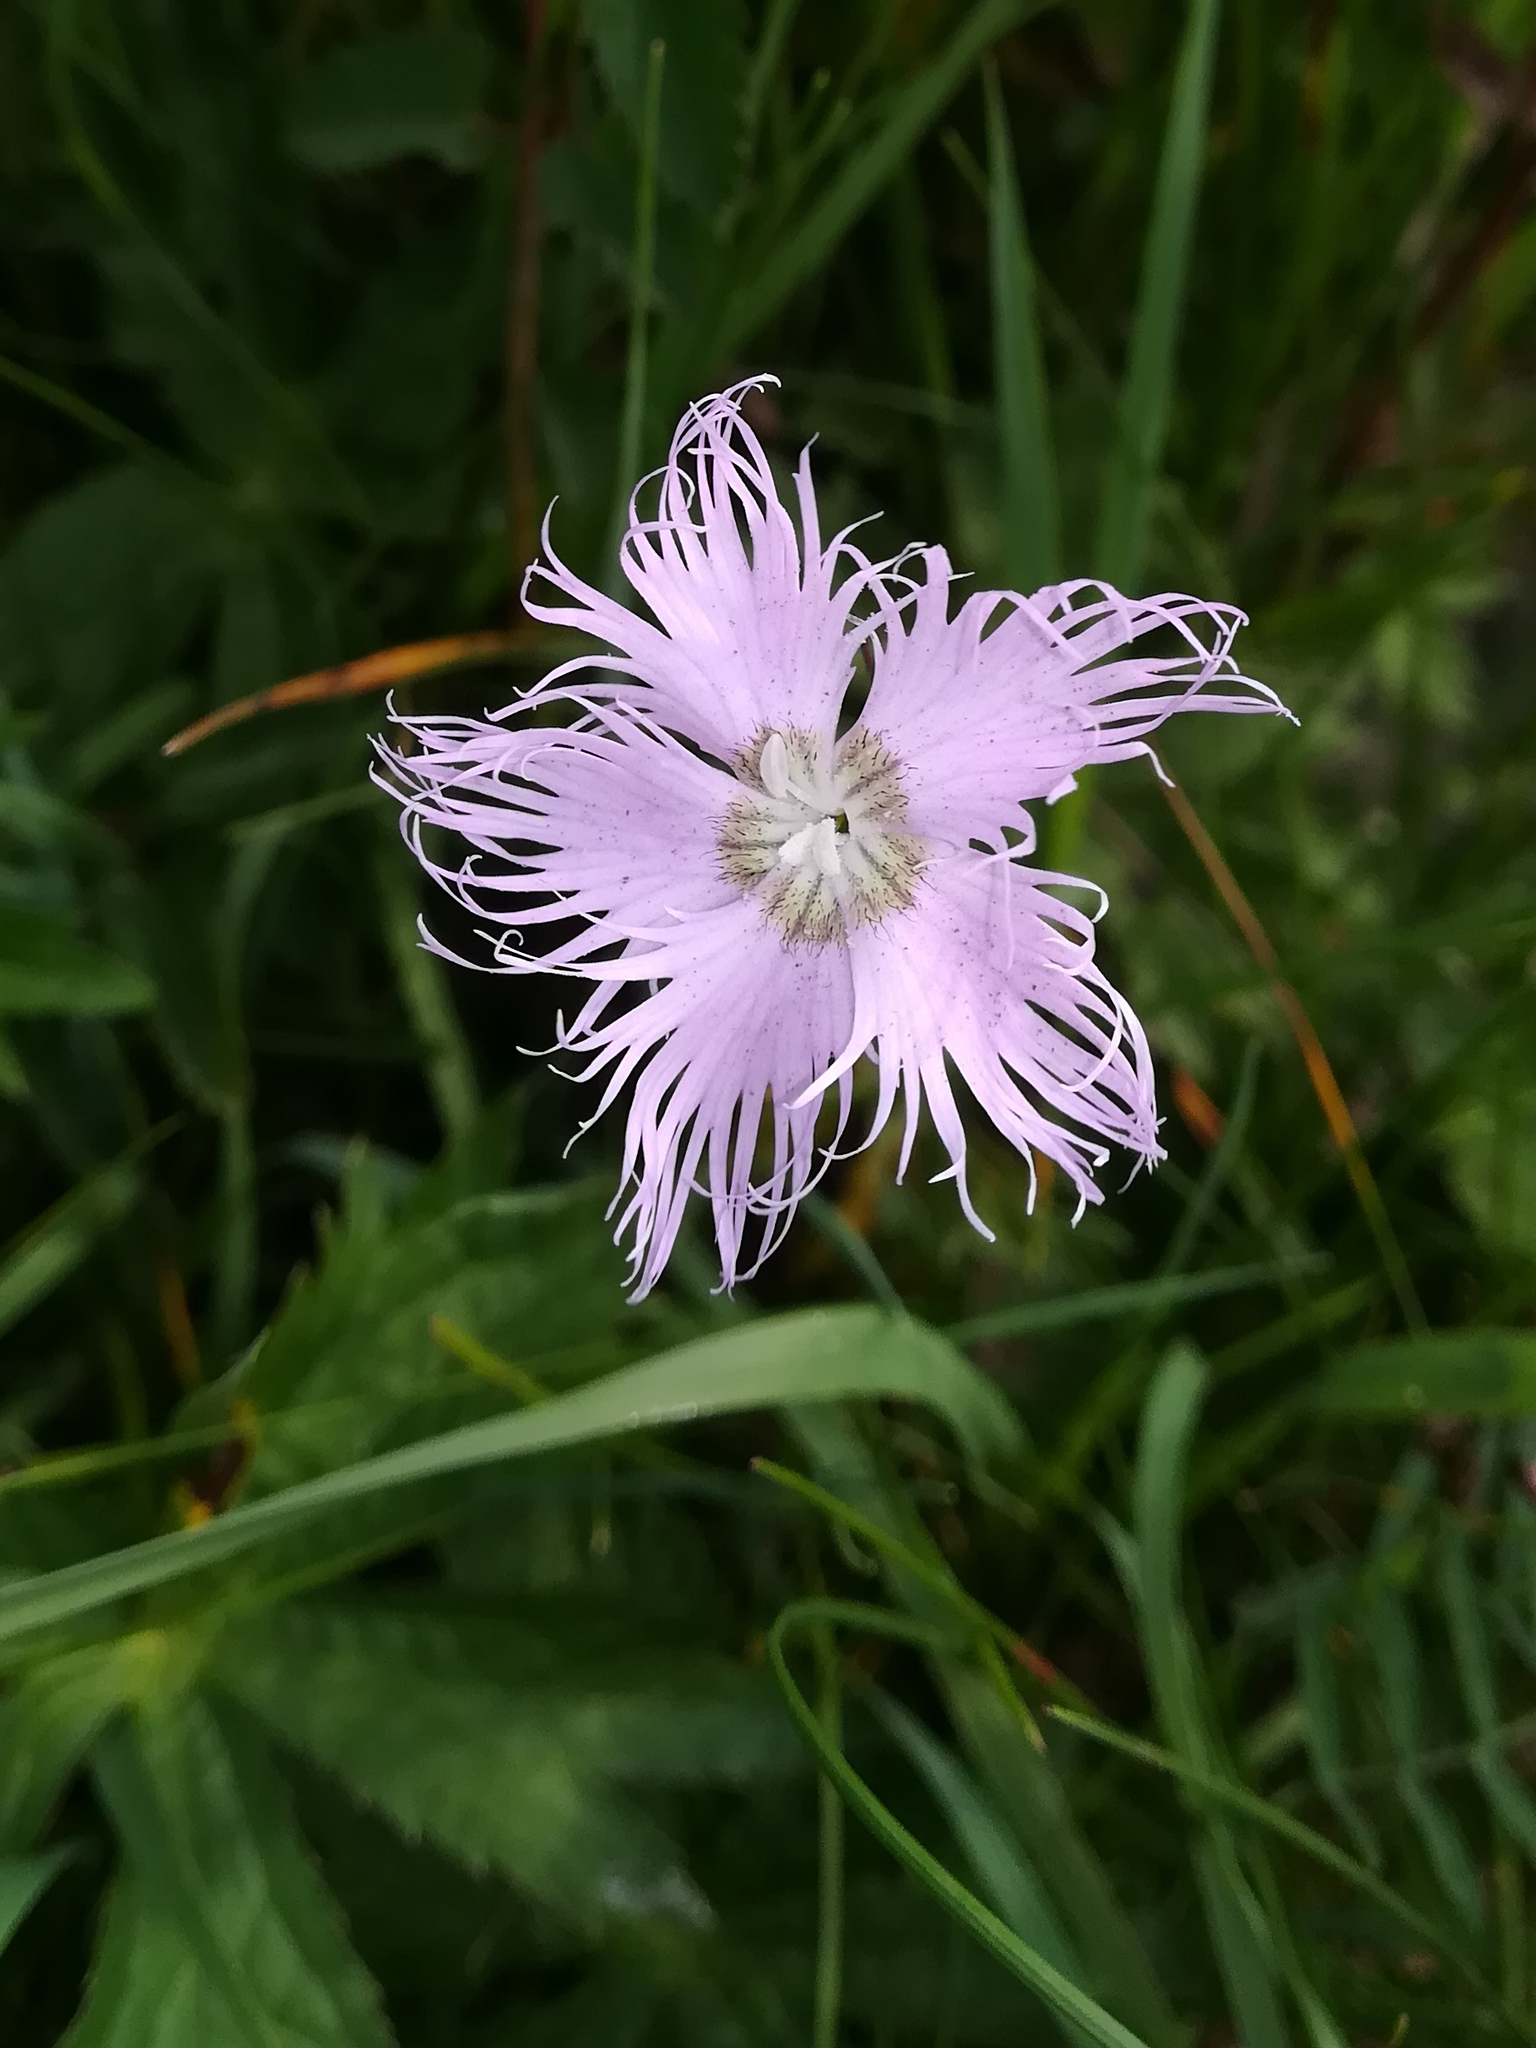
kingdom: Plantae
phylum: Tracheophyta
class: Magnoliopsida
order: Caryophyllales
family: Caryophyllaceae
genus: Dianthus
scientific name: Dianthus hyssopifolius
